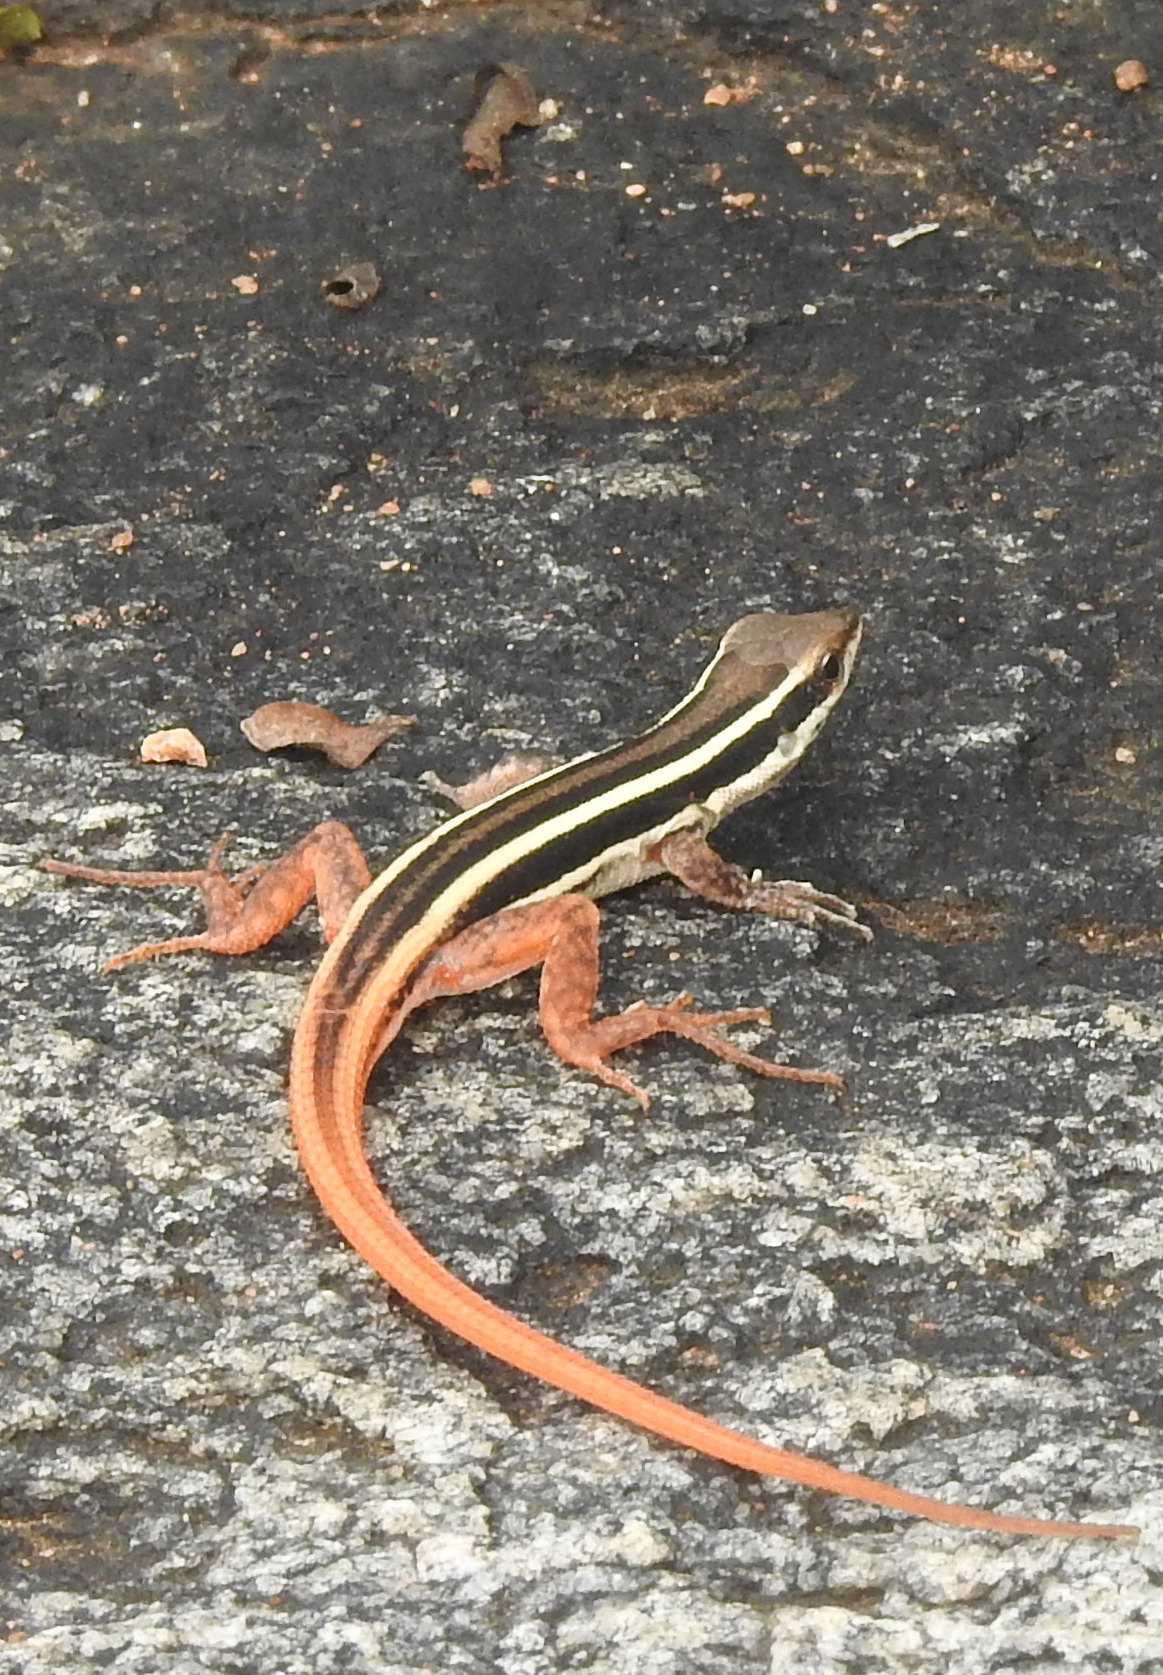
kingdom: Animalia
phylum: Chordata
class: Squamata
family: Lacertidae
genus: Ophisops
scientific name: Ophisops leschenaultii
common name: Leschenault's cabrita
